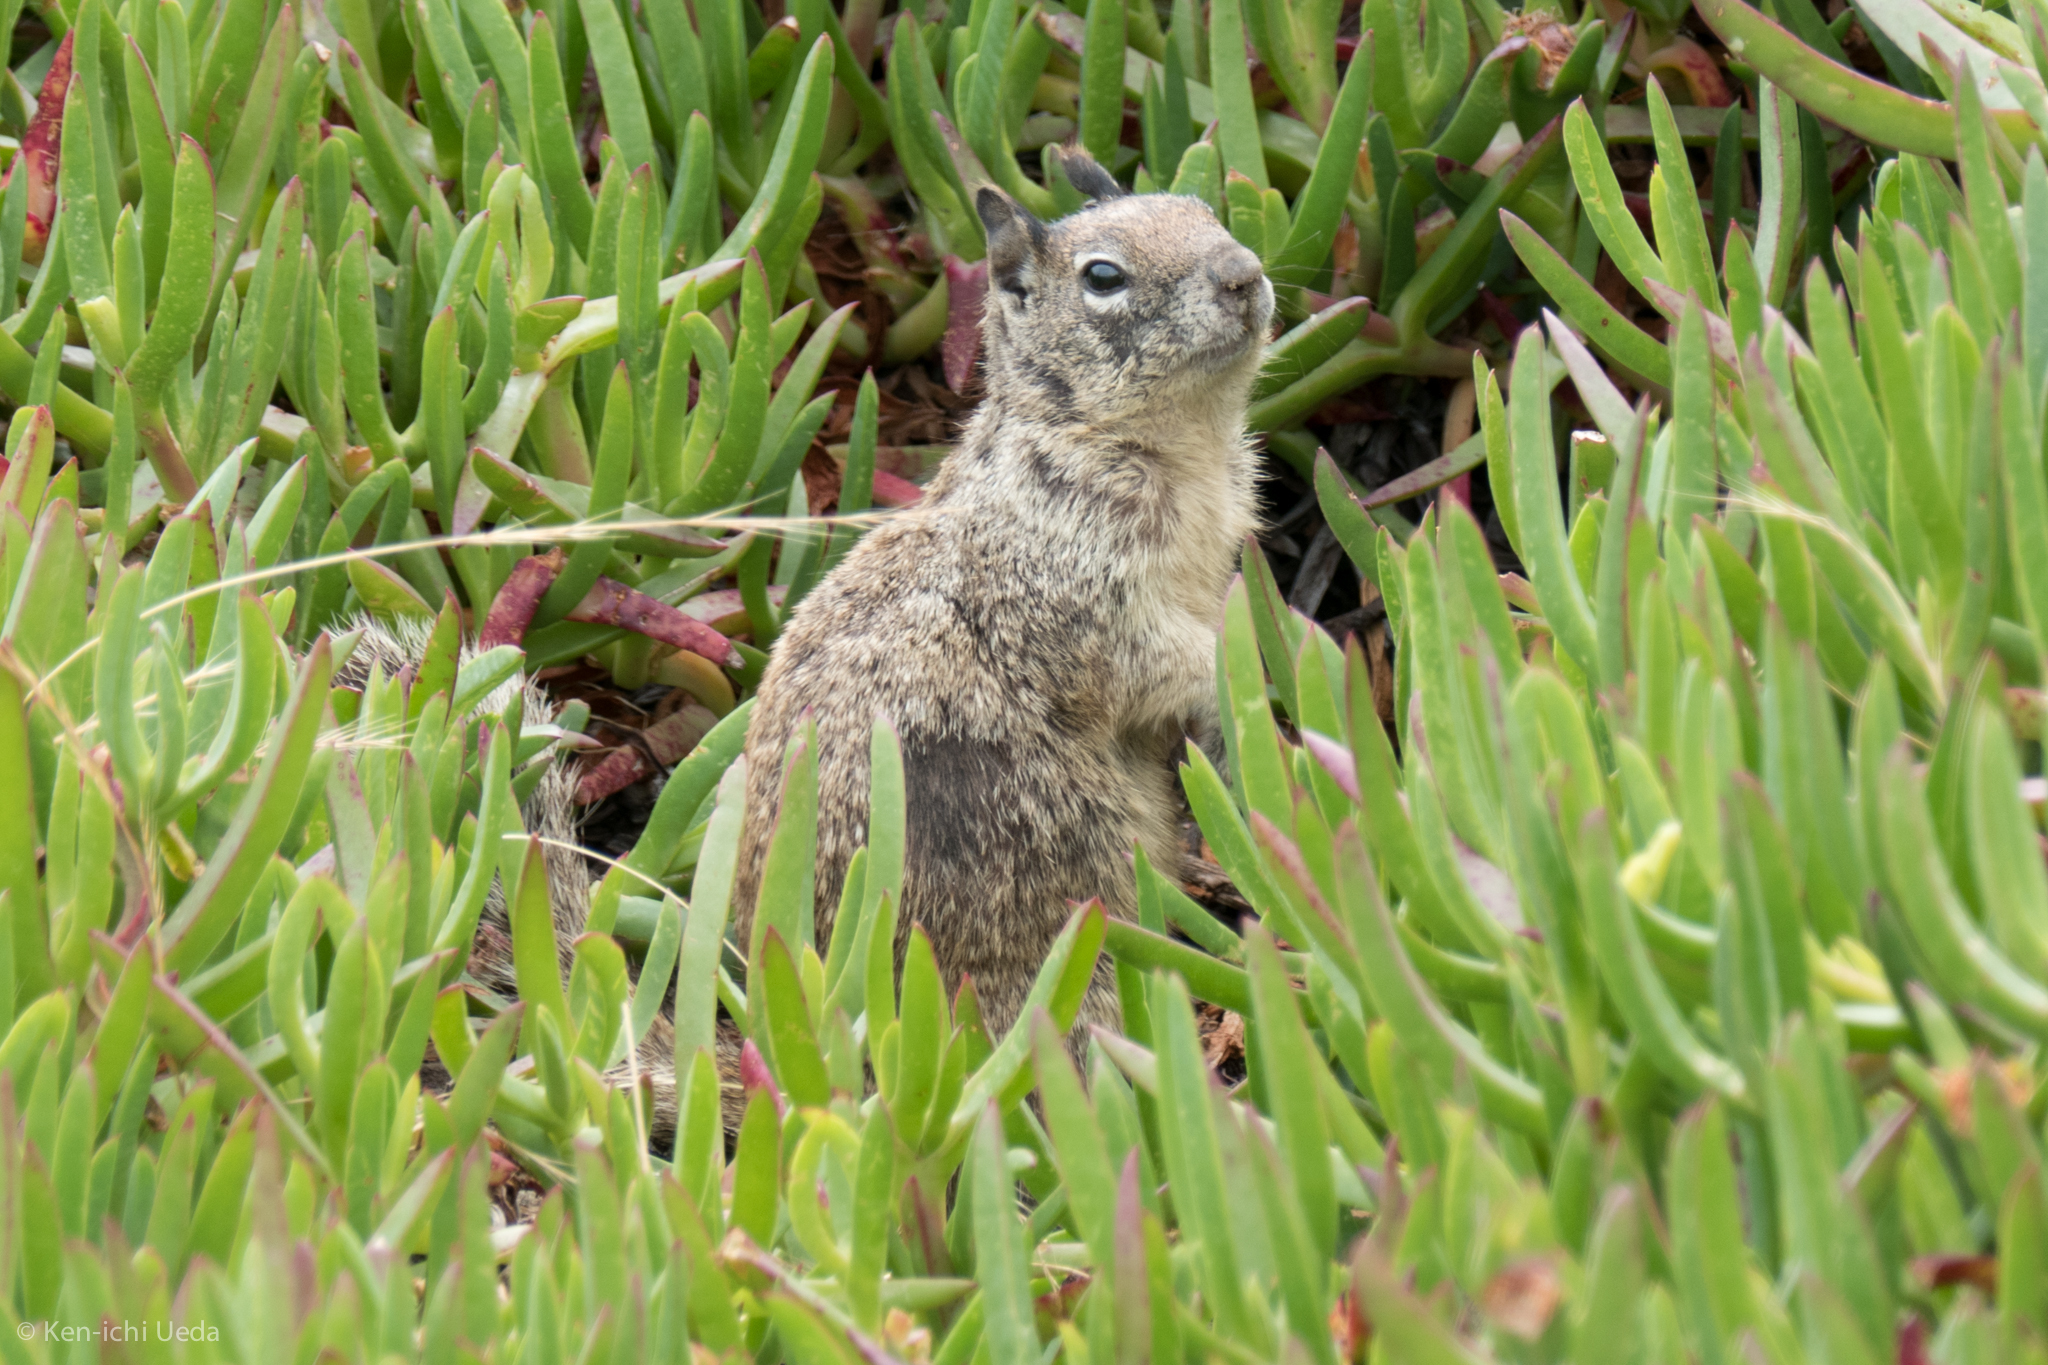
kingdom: Animalia
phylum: Chordata
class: Mammalia
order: Rodentia
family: Sciuridae
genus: Otospermophilus
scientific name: Otospermophilus beecheyi
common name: California ground squirrel
